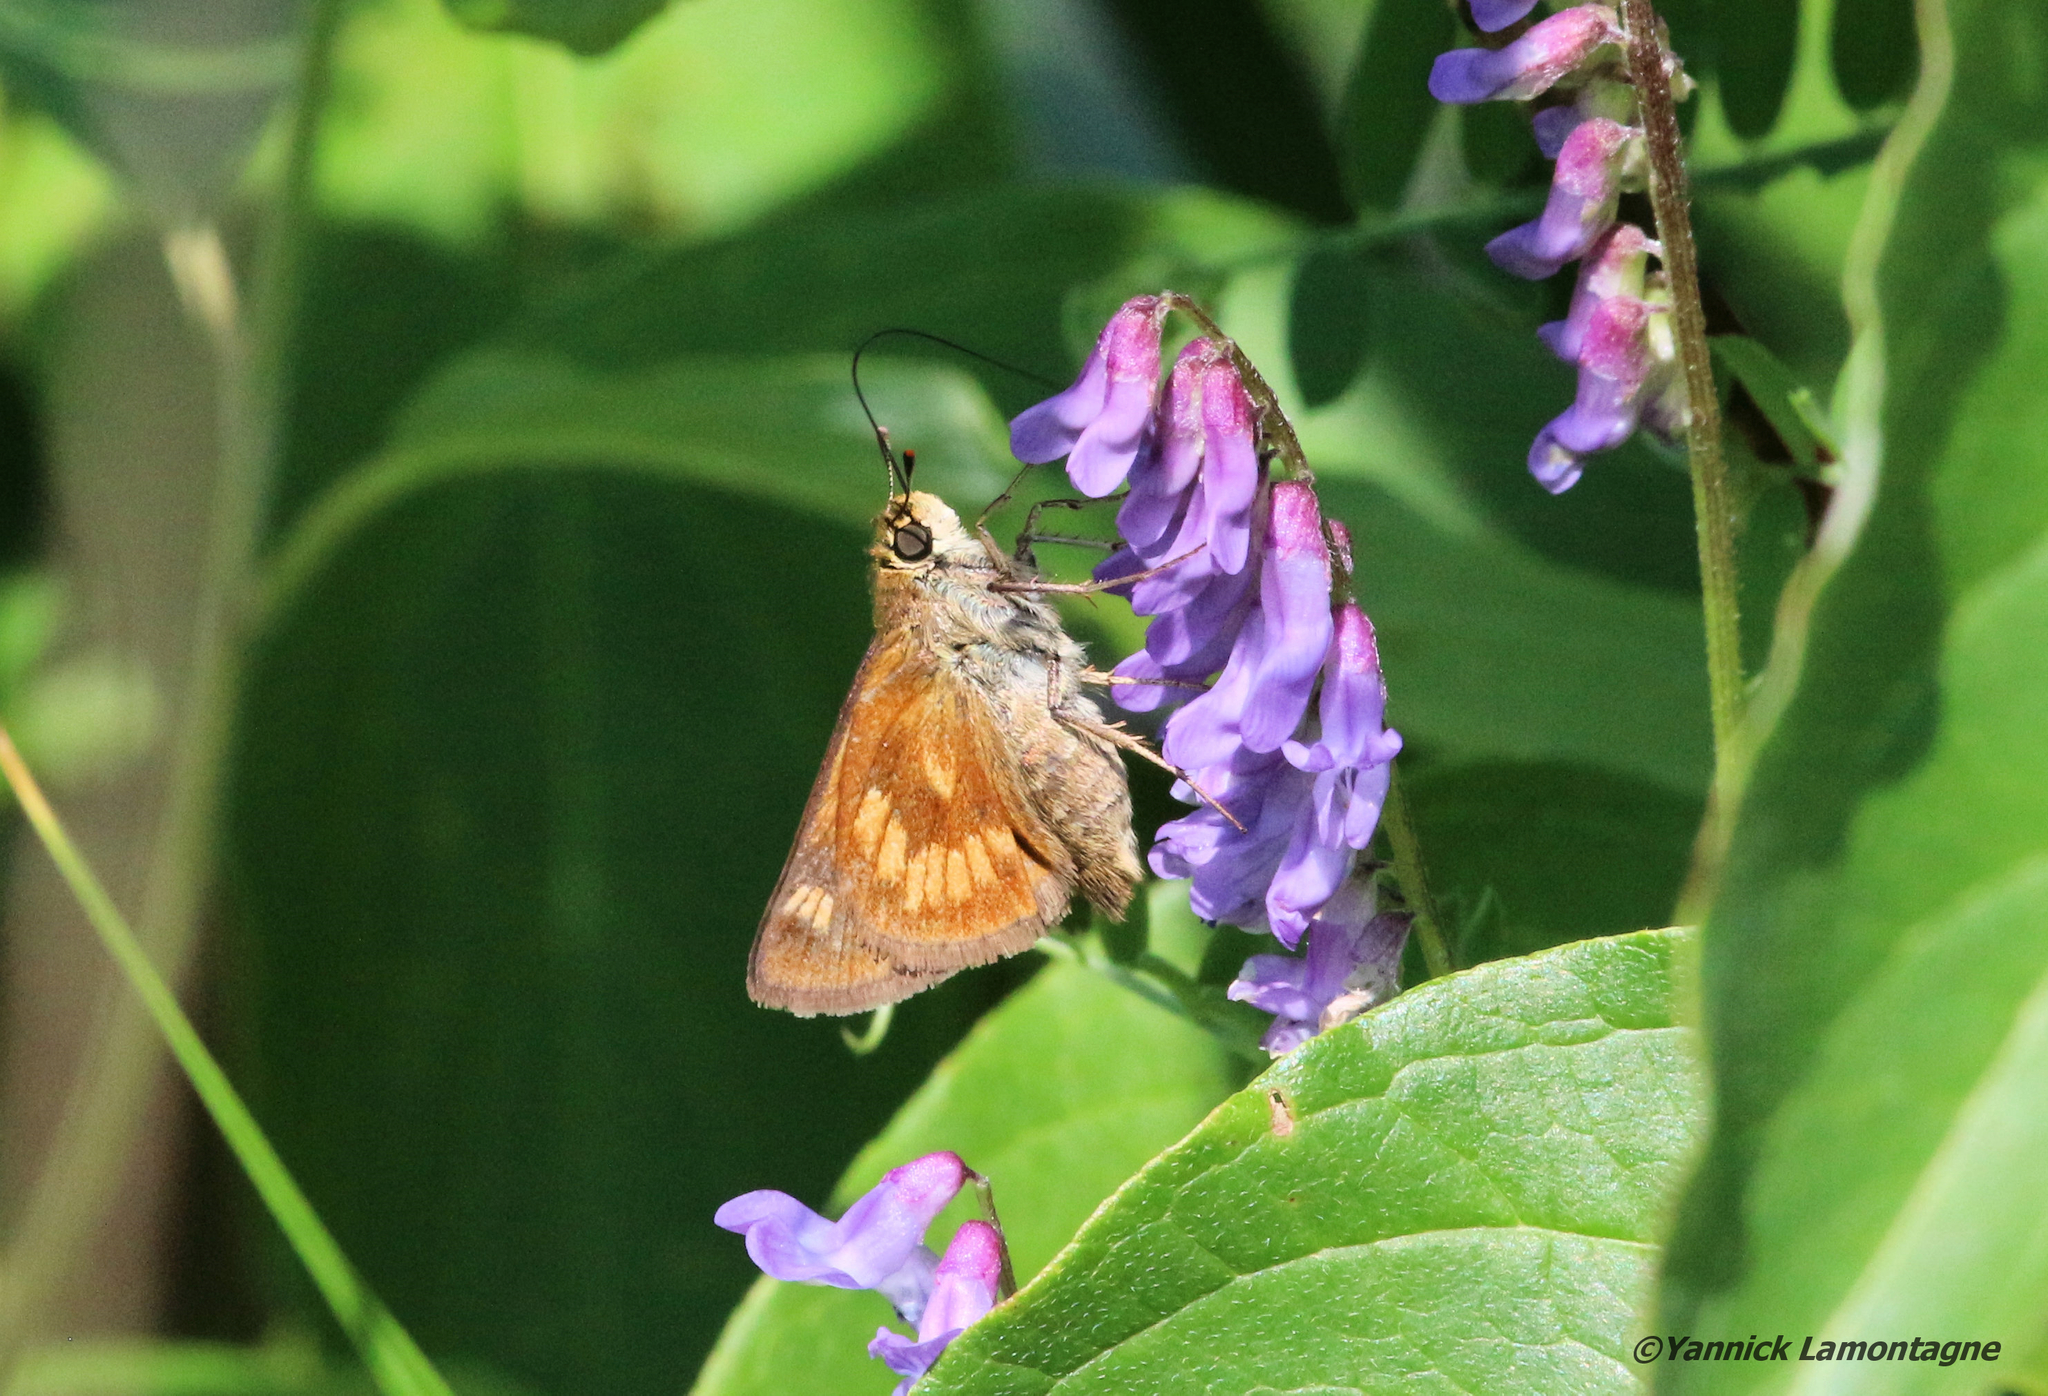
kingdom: Animalia
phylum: Arthropoda
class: Insecta
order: Lepidoptera
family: Hesperiidae
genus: Polites
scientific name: Polites mystic
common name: Long dash
